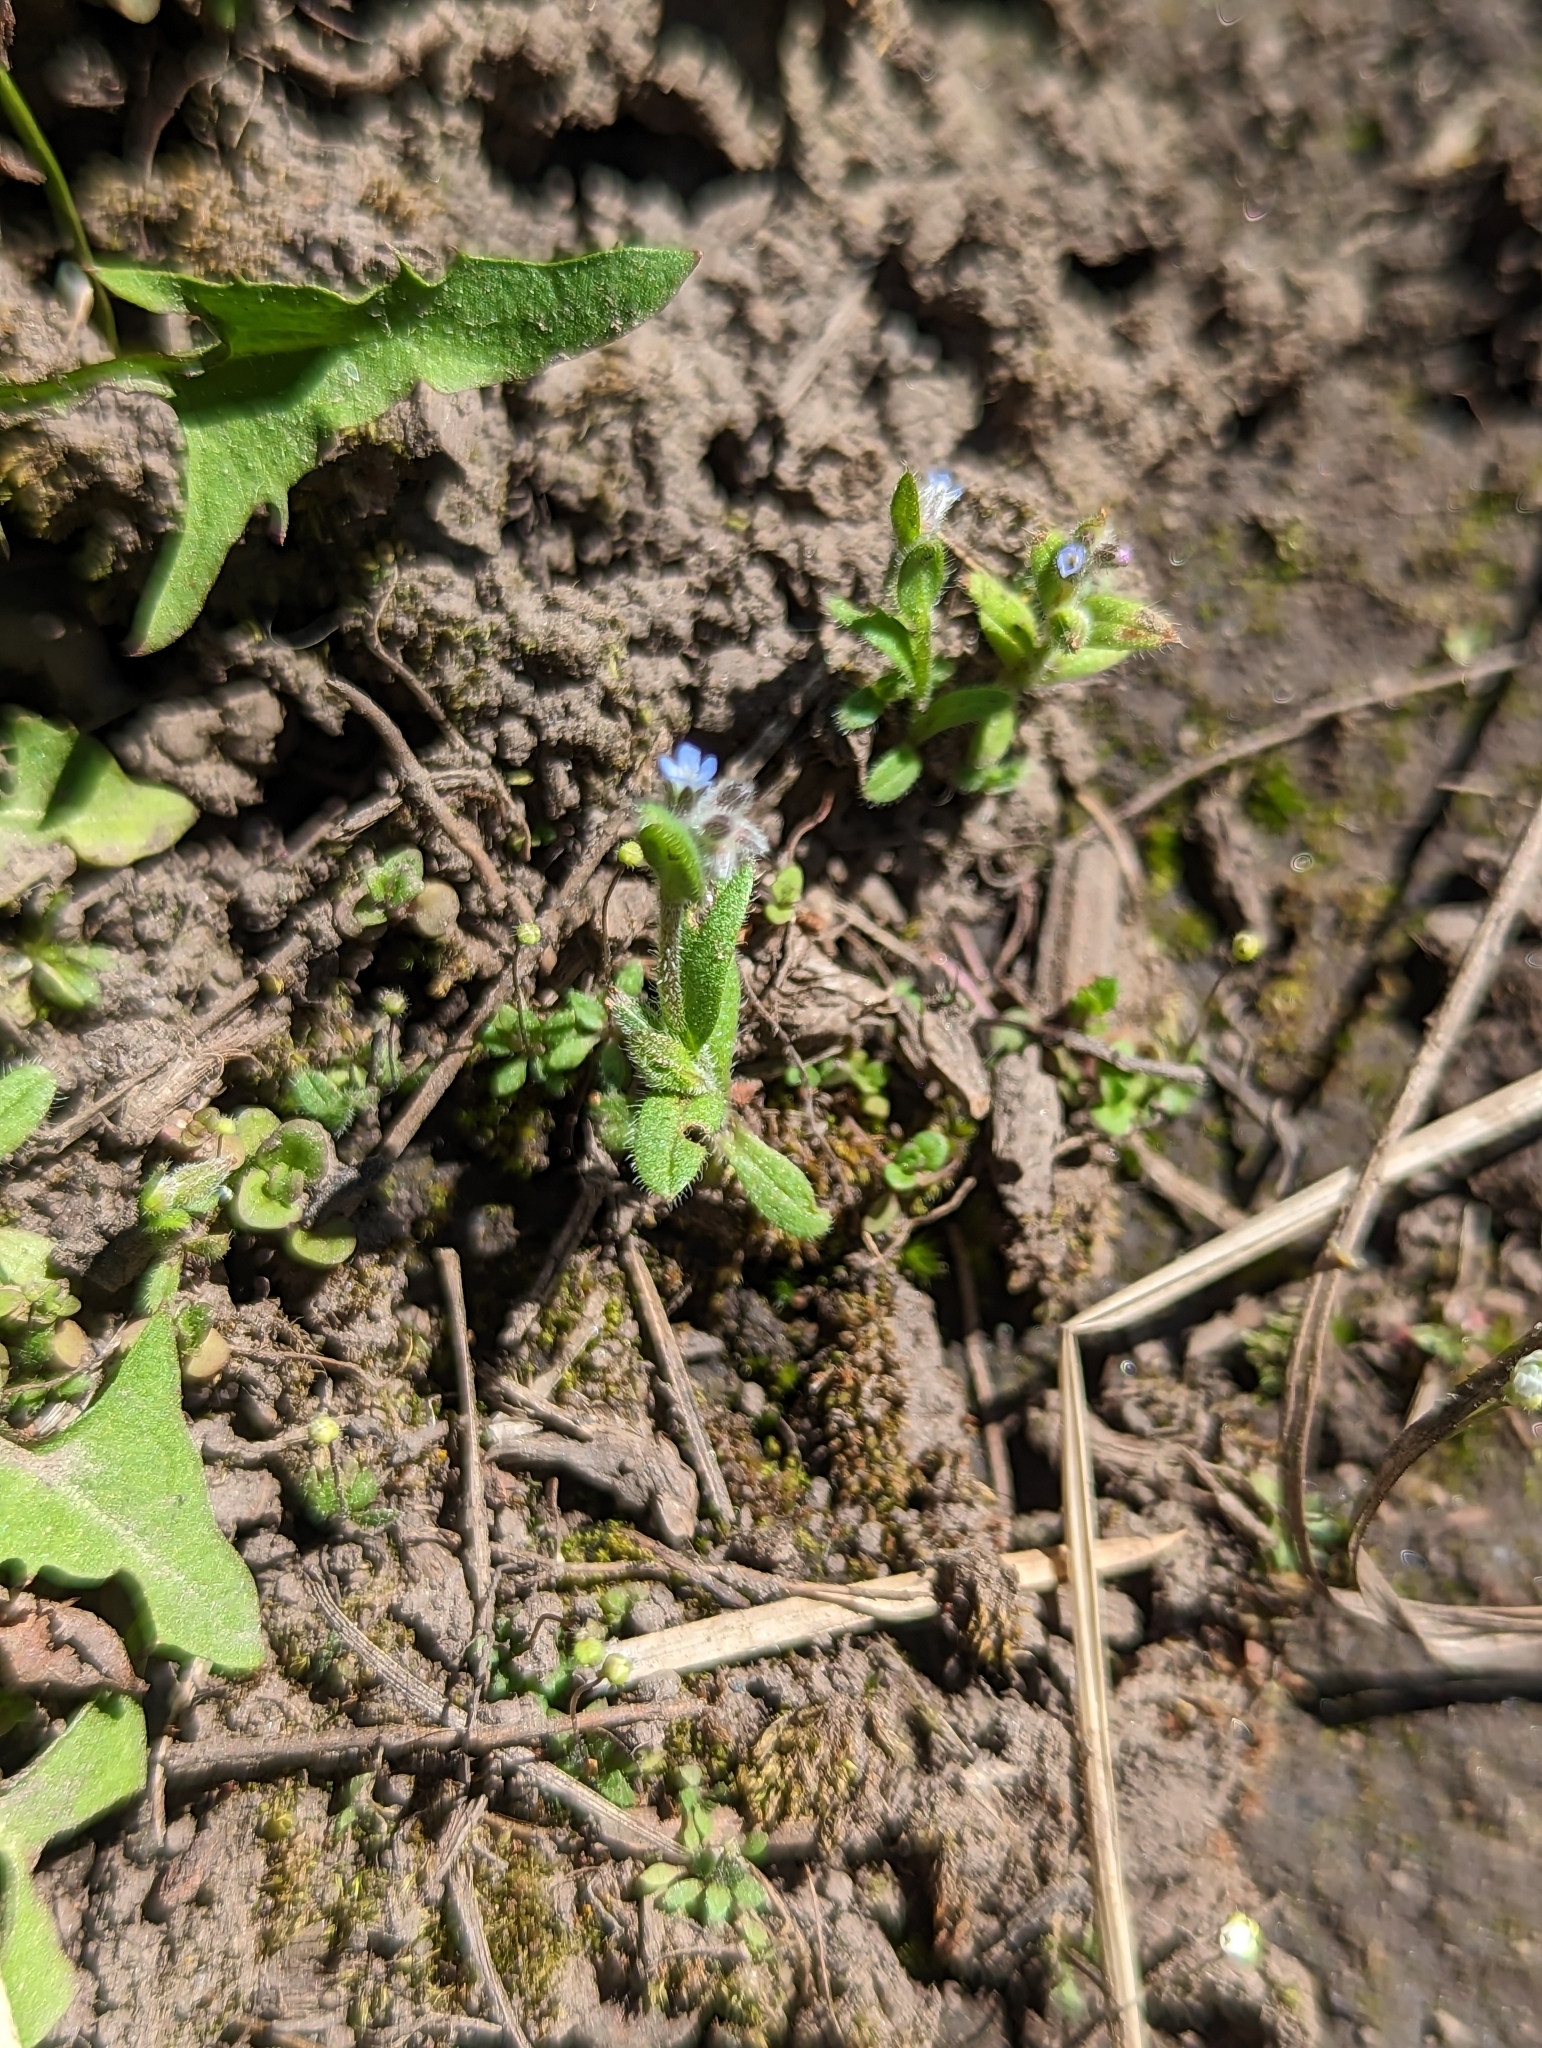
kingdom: Plantae
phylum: Tracheophyta
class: Magnoliopsida
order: Boraginales
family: Boraginaceae
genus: Myosotis
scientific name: Myosotis stricta
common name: Strict forget-me-not
